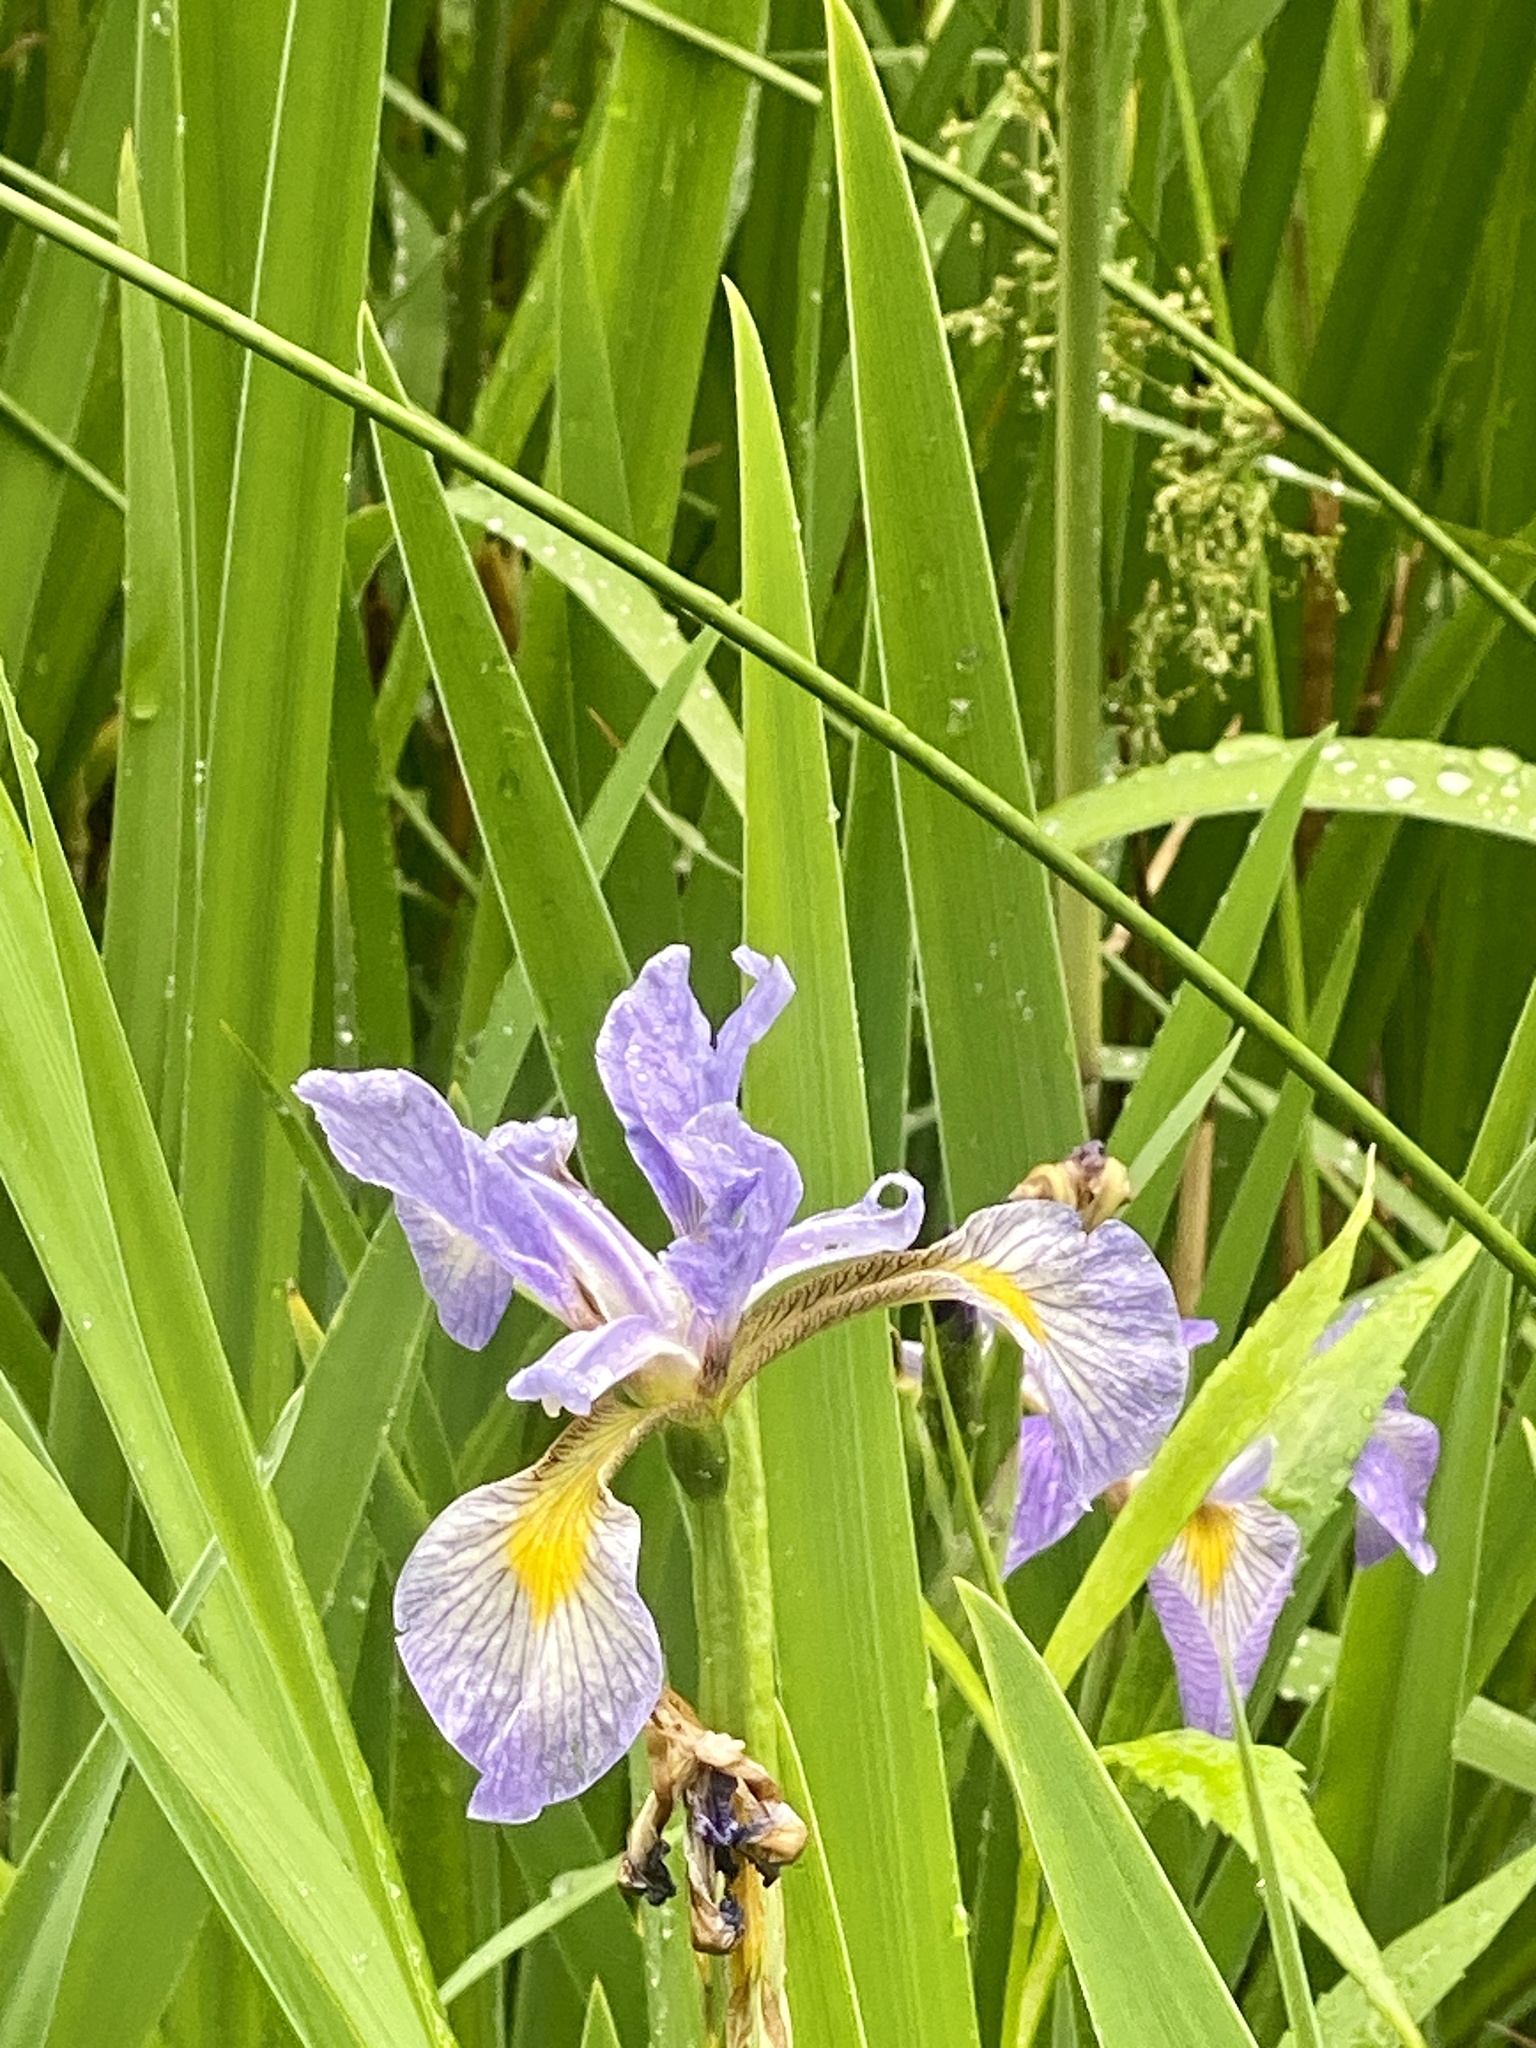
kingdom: Plantae
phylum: Tracheophyta
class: Liliopsida
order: Asparagales
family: Iridaceae
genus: Iris
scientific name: Iris virginica
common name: Southern blue flag
